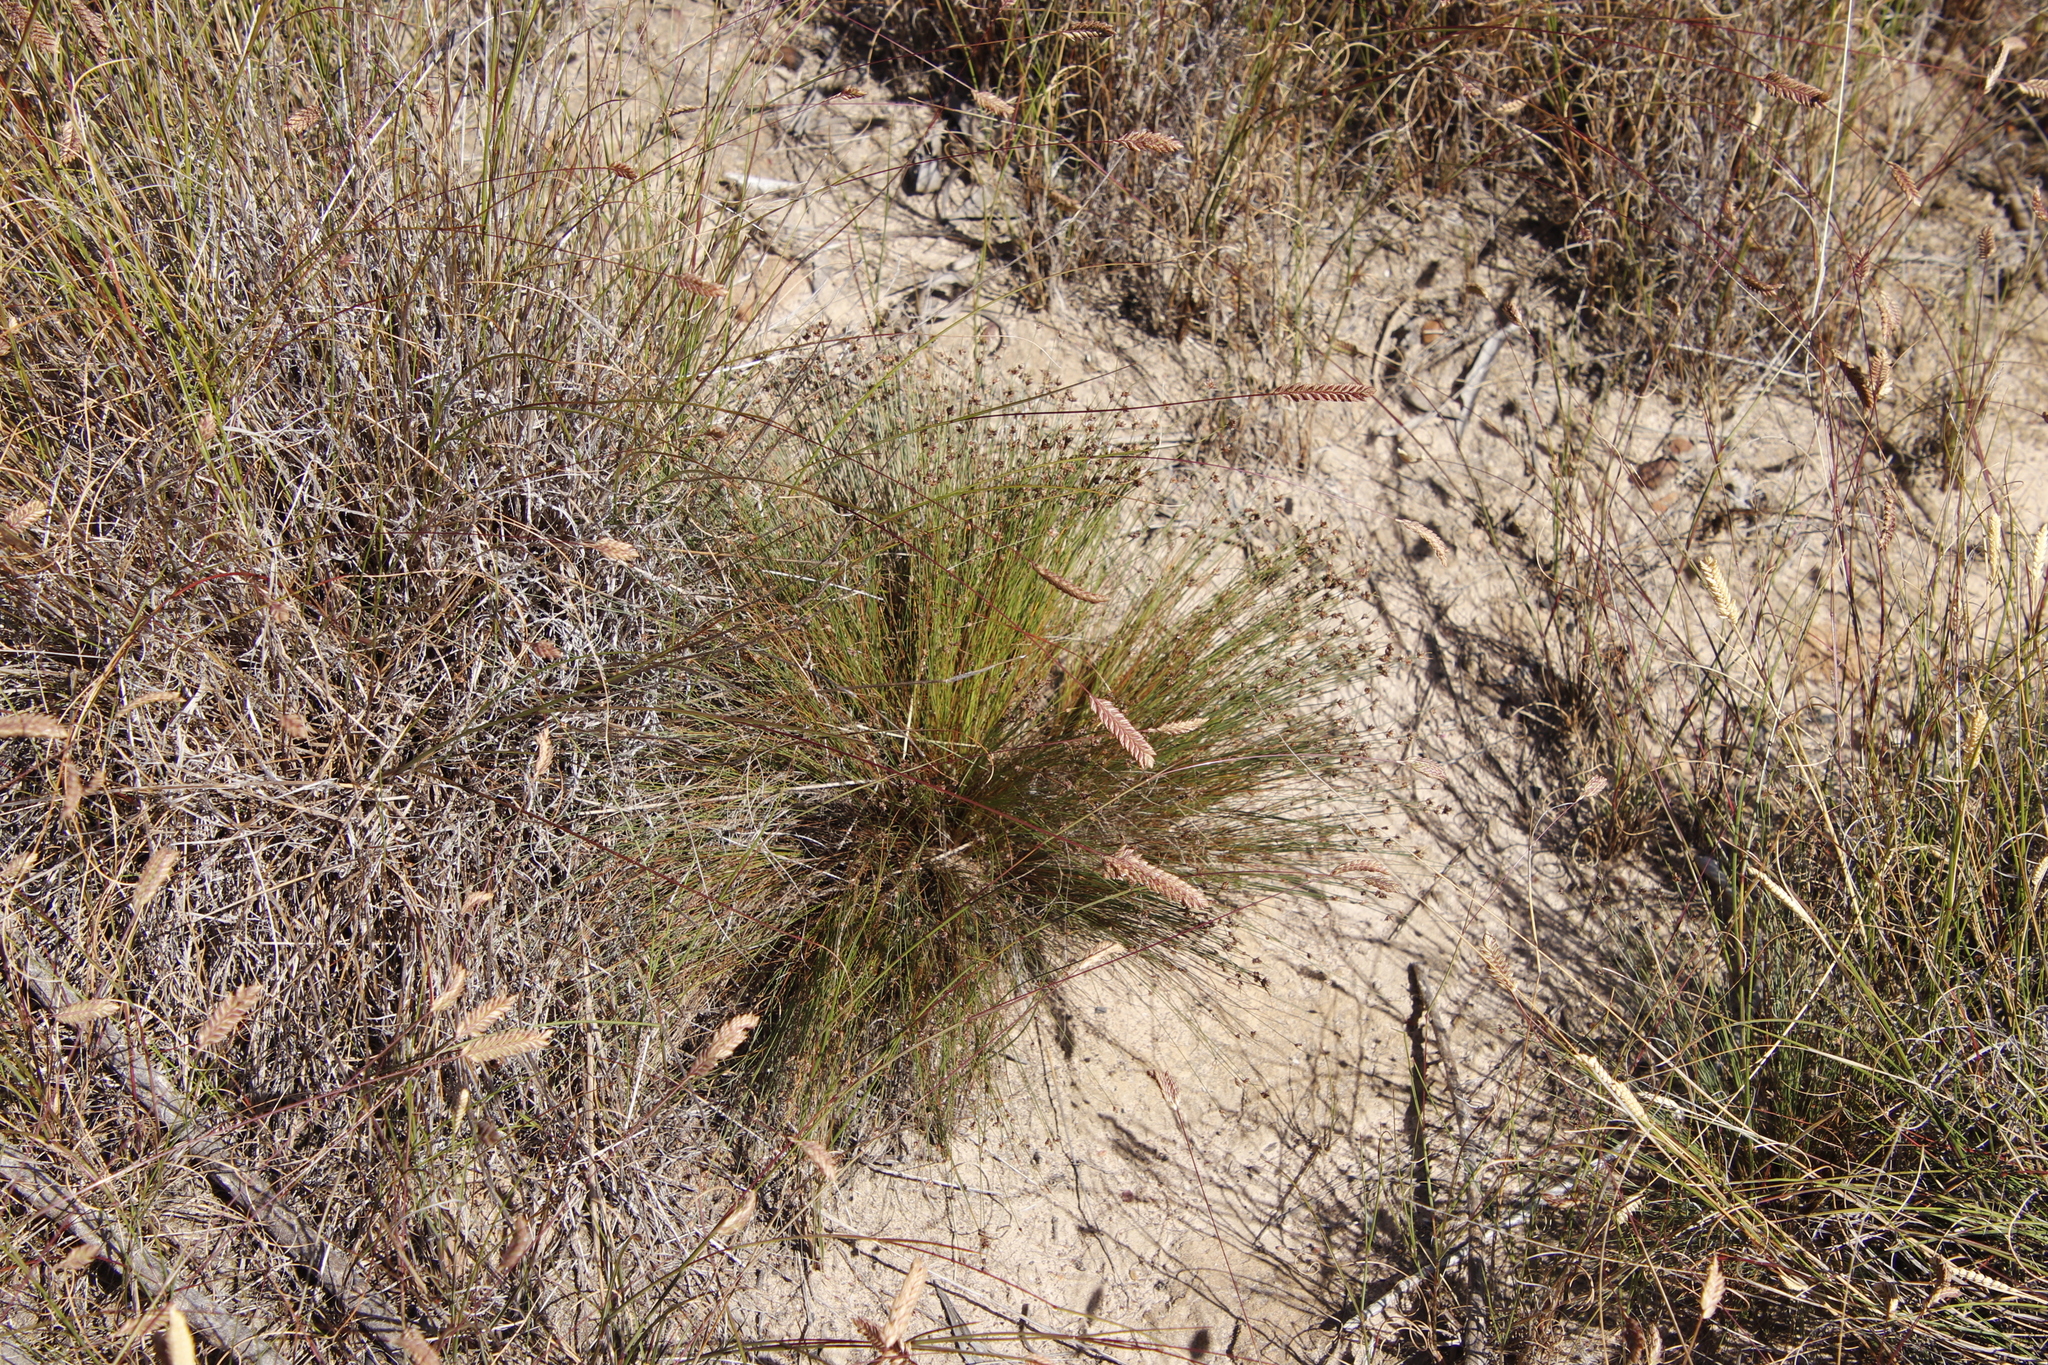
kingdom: Plantae
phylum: Tracheophyta
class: Liliopsida
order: Poales
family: Poaceae
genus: Tribolium
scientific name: Tribolium uniolae
